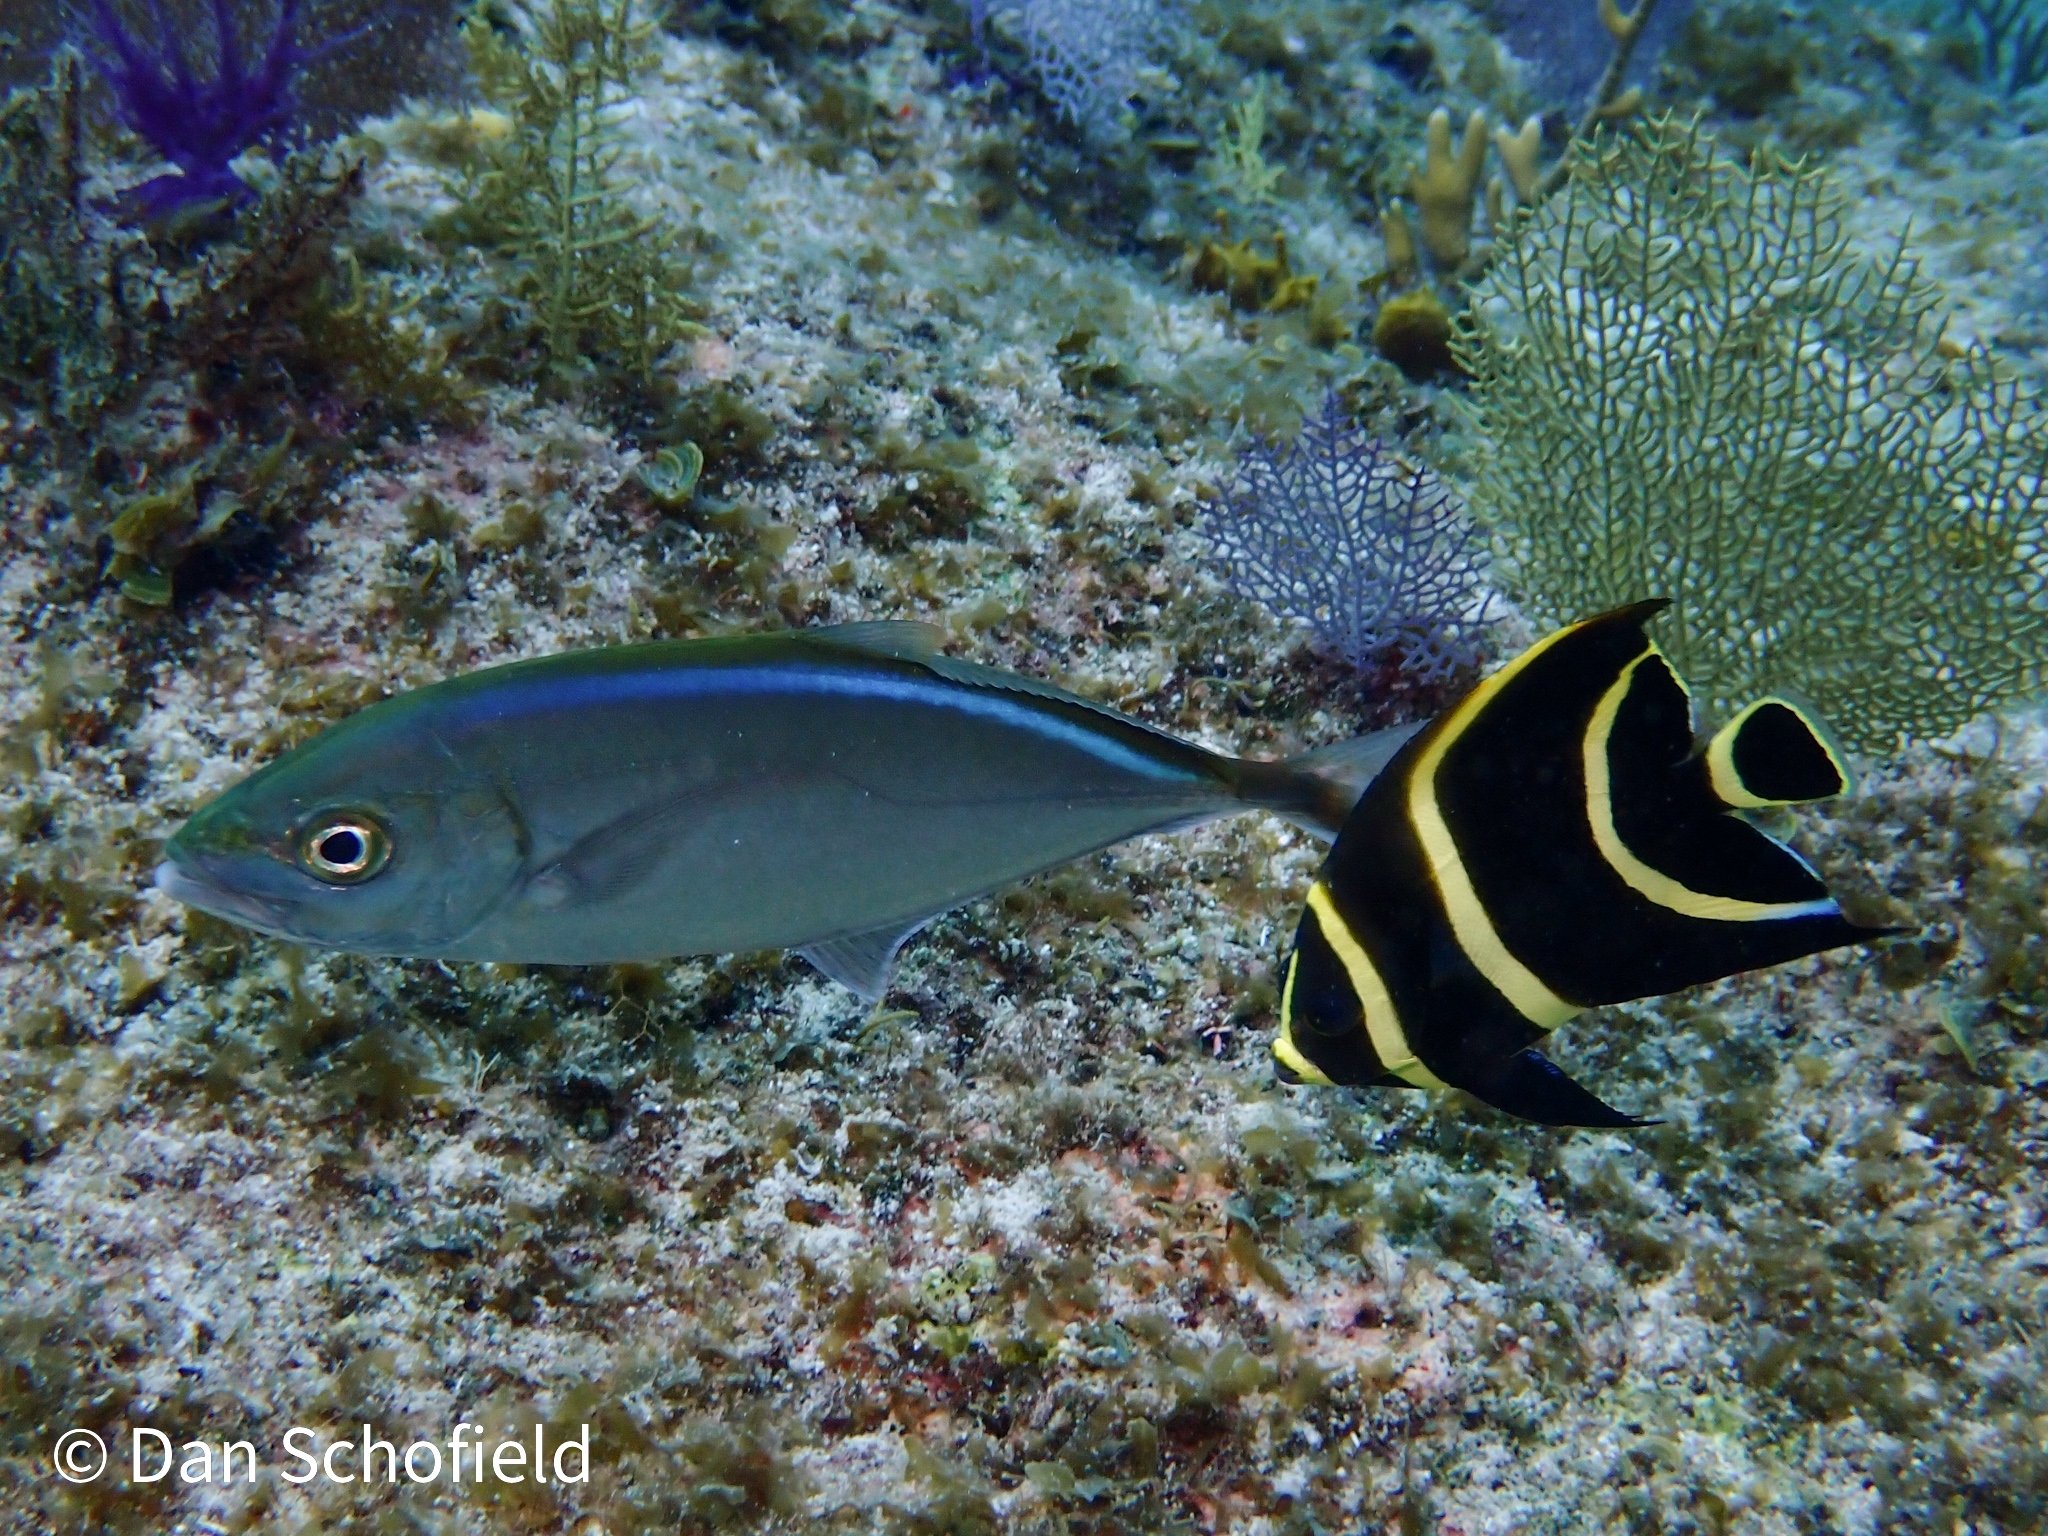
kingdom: Animalia
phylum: Chordata
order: Perciformes
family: Pomacanthidae
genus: Pomacanthus
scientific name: Pomacanthus paru
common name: French angelfish
